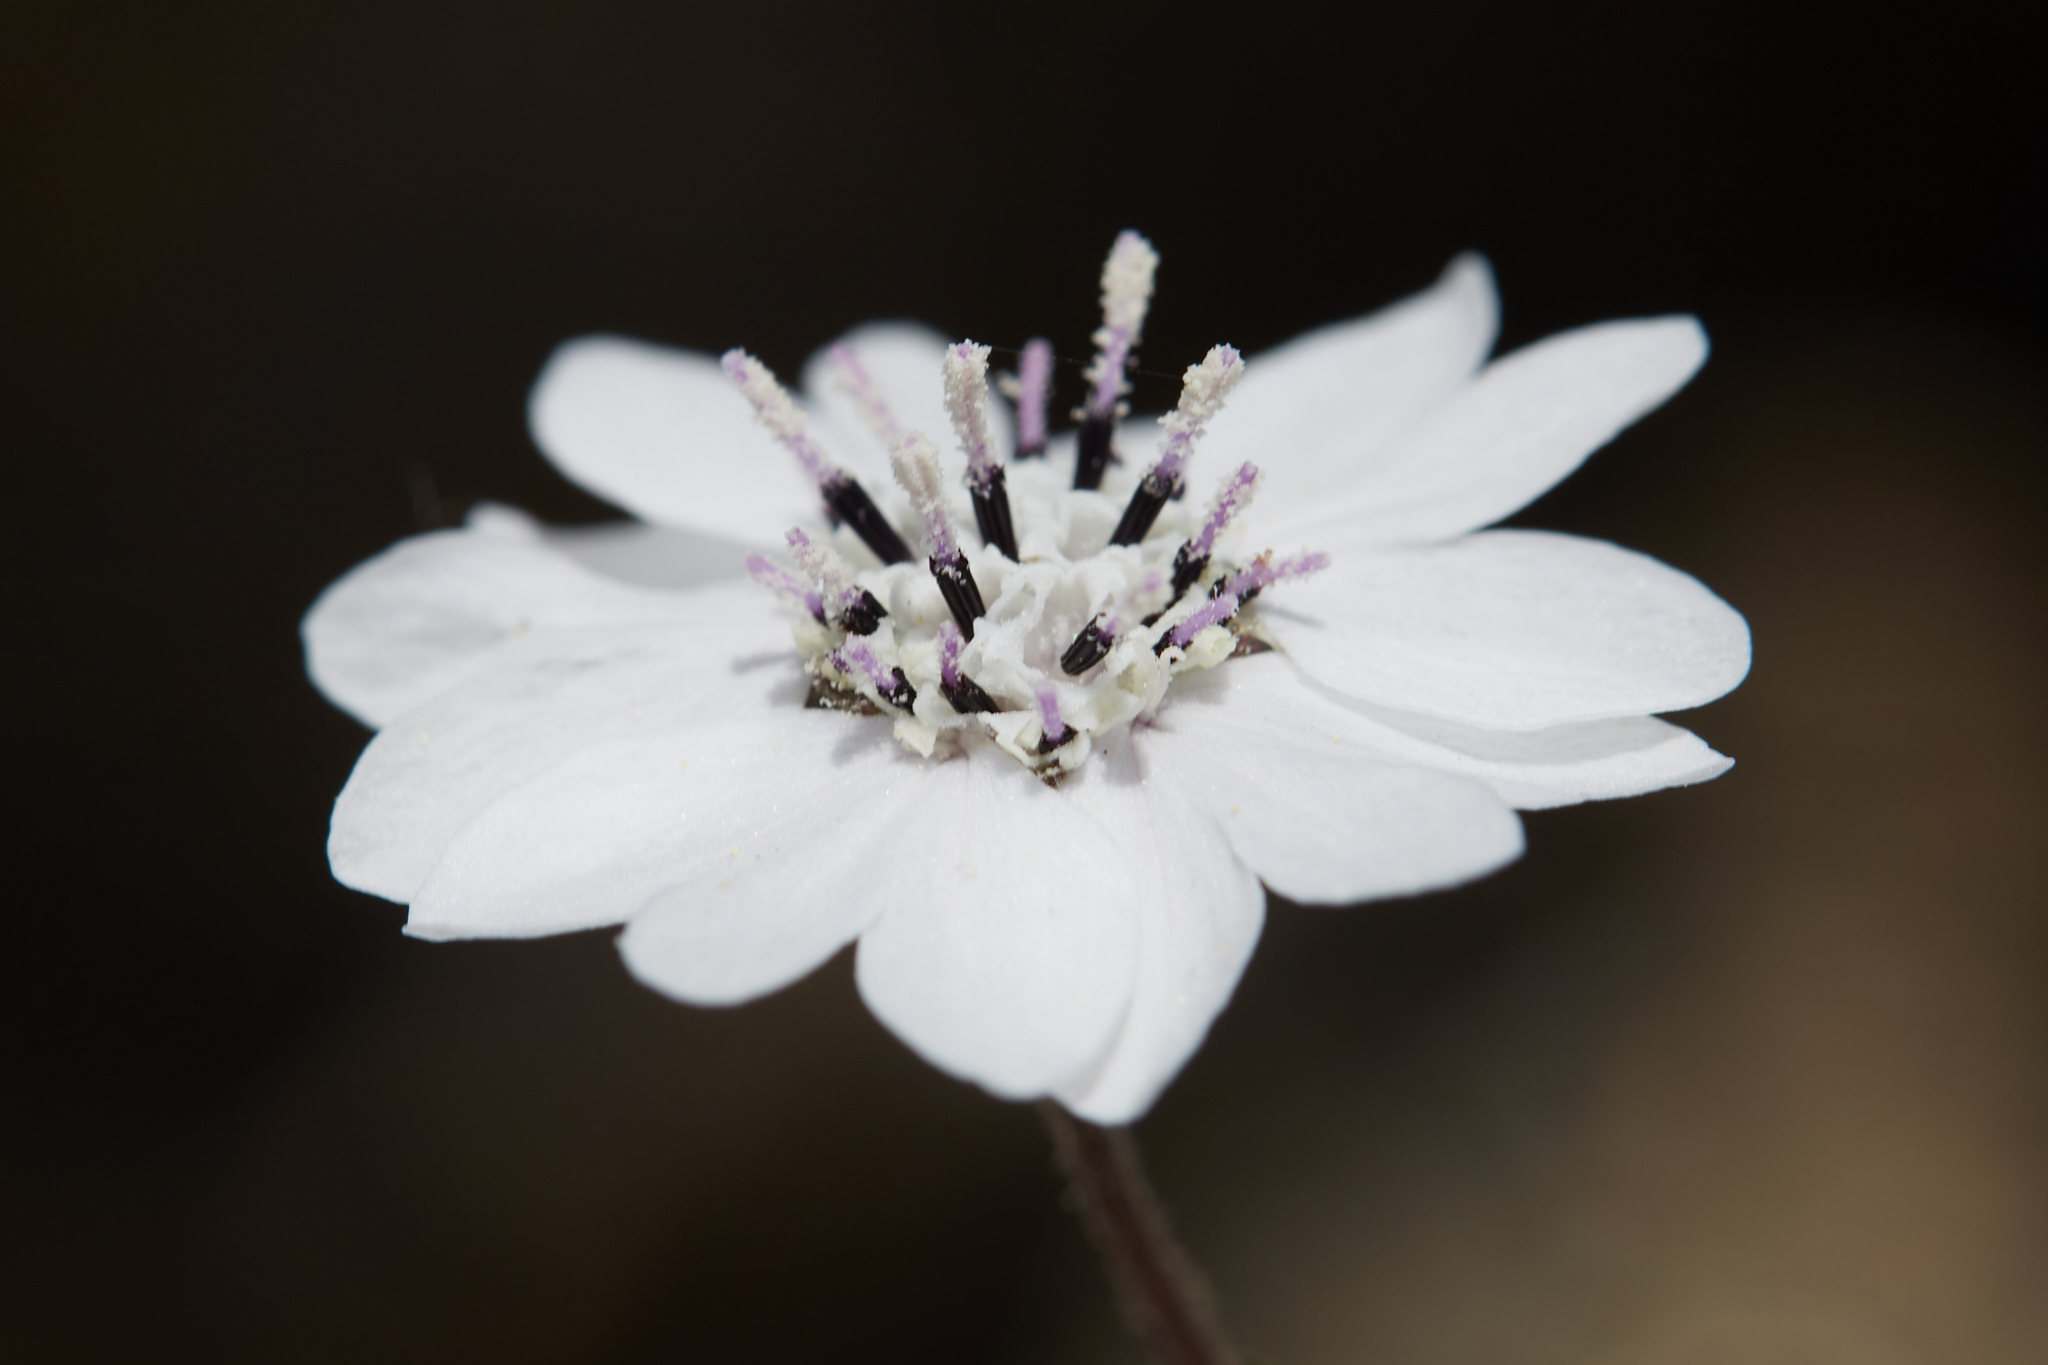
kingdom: Plantae
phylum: Tracheophyta
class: Magnoliopsida
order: Asterales
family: Asteraceae
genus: Blepharipappus
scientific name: Blepharipappus scaber
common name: Rough blepharipappus
